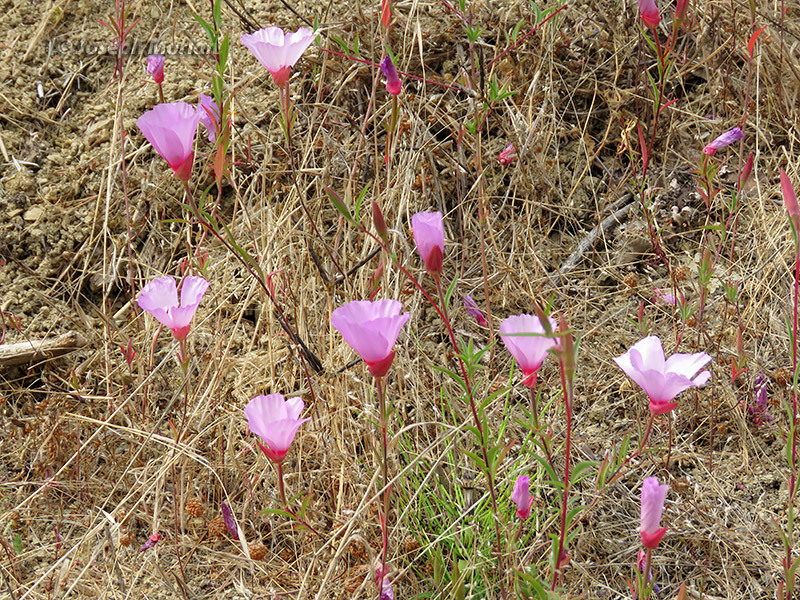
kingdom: Plantae
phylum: Tracheophyta
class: Magnoliopsida
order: Myrtales
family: Onagraceae
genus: Clarkia
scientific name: Clarkia rubicunda
